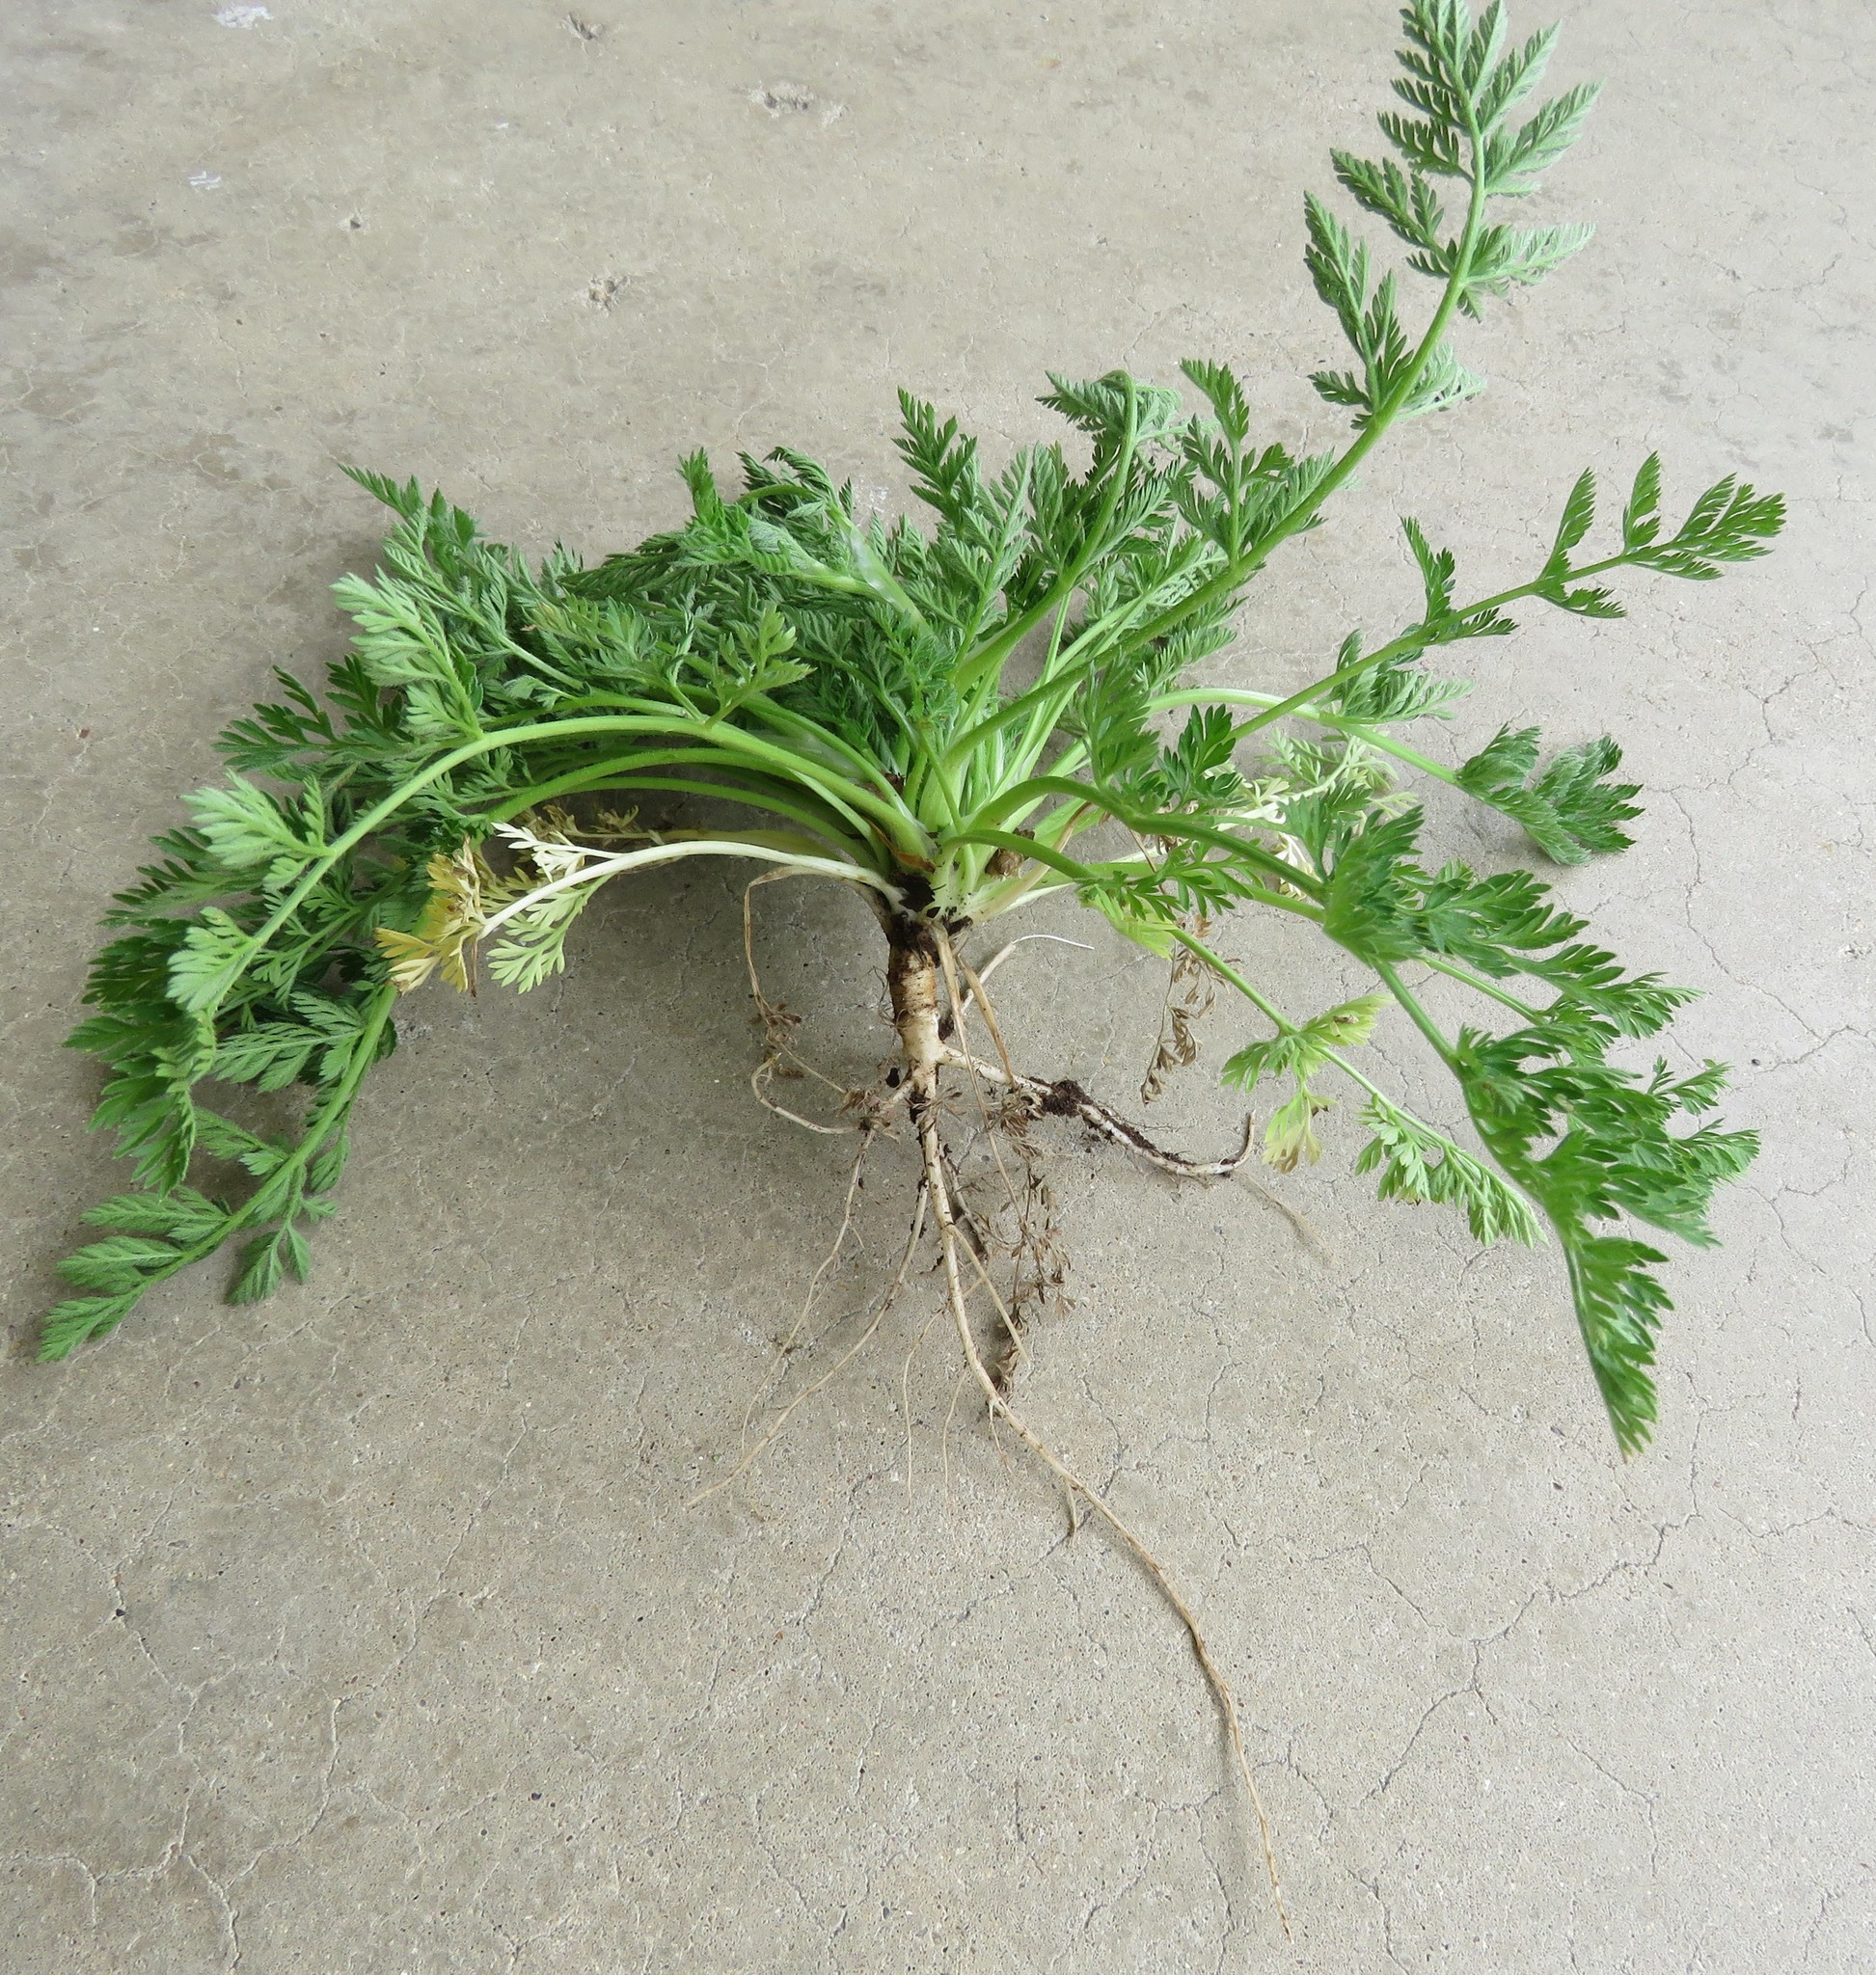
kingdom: Plantae
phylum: Tracheophyta
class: Magnoliopsida
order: Apiales
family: Apiaceae
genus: Torilis
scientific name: Torilis nodosa
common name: Knotted hedge-parsley
